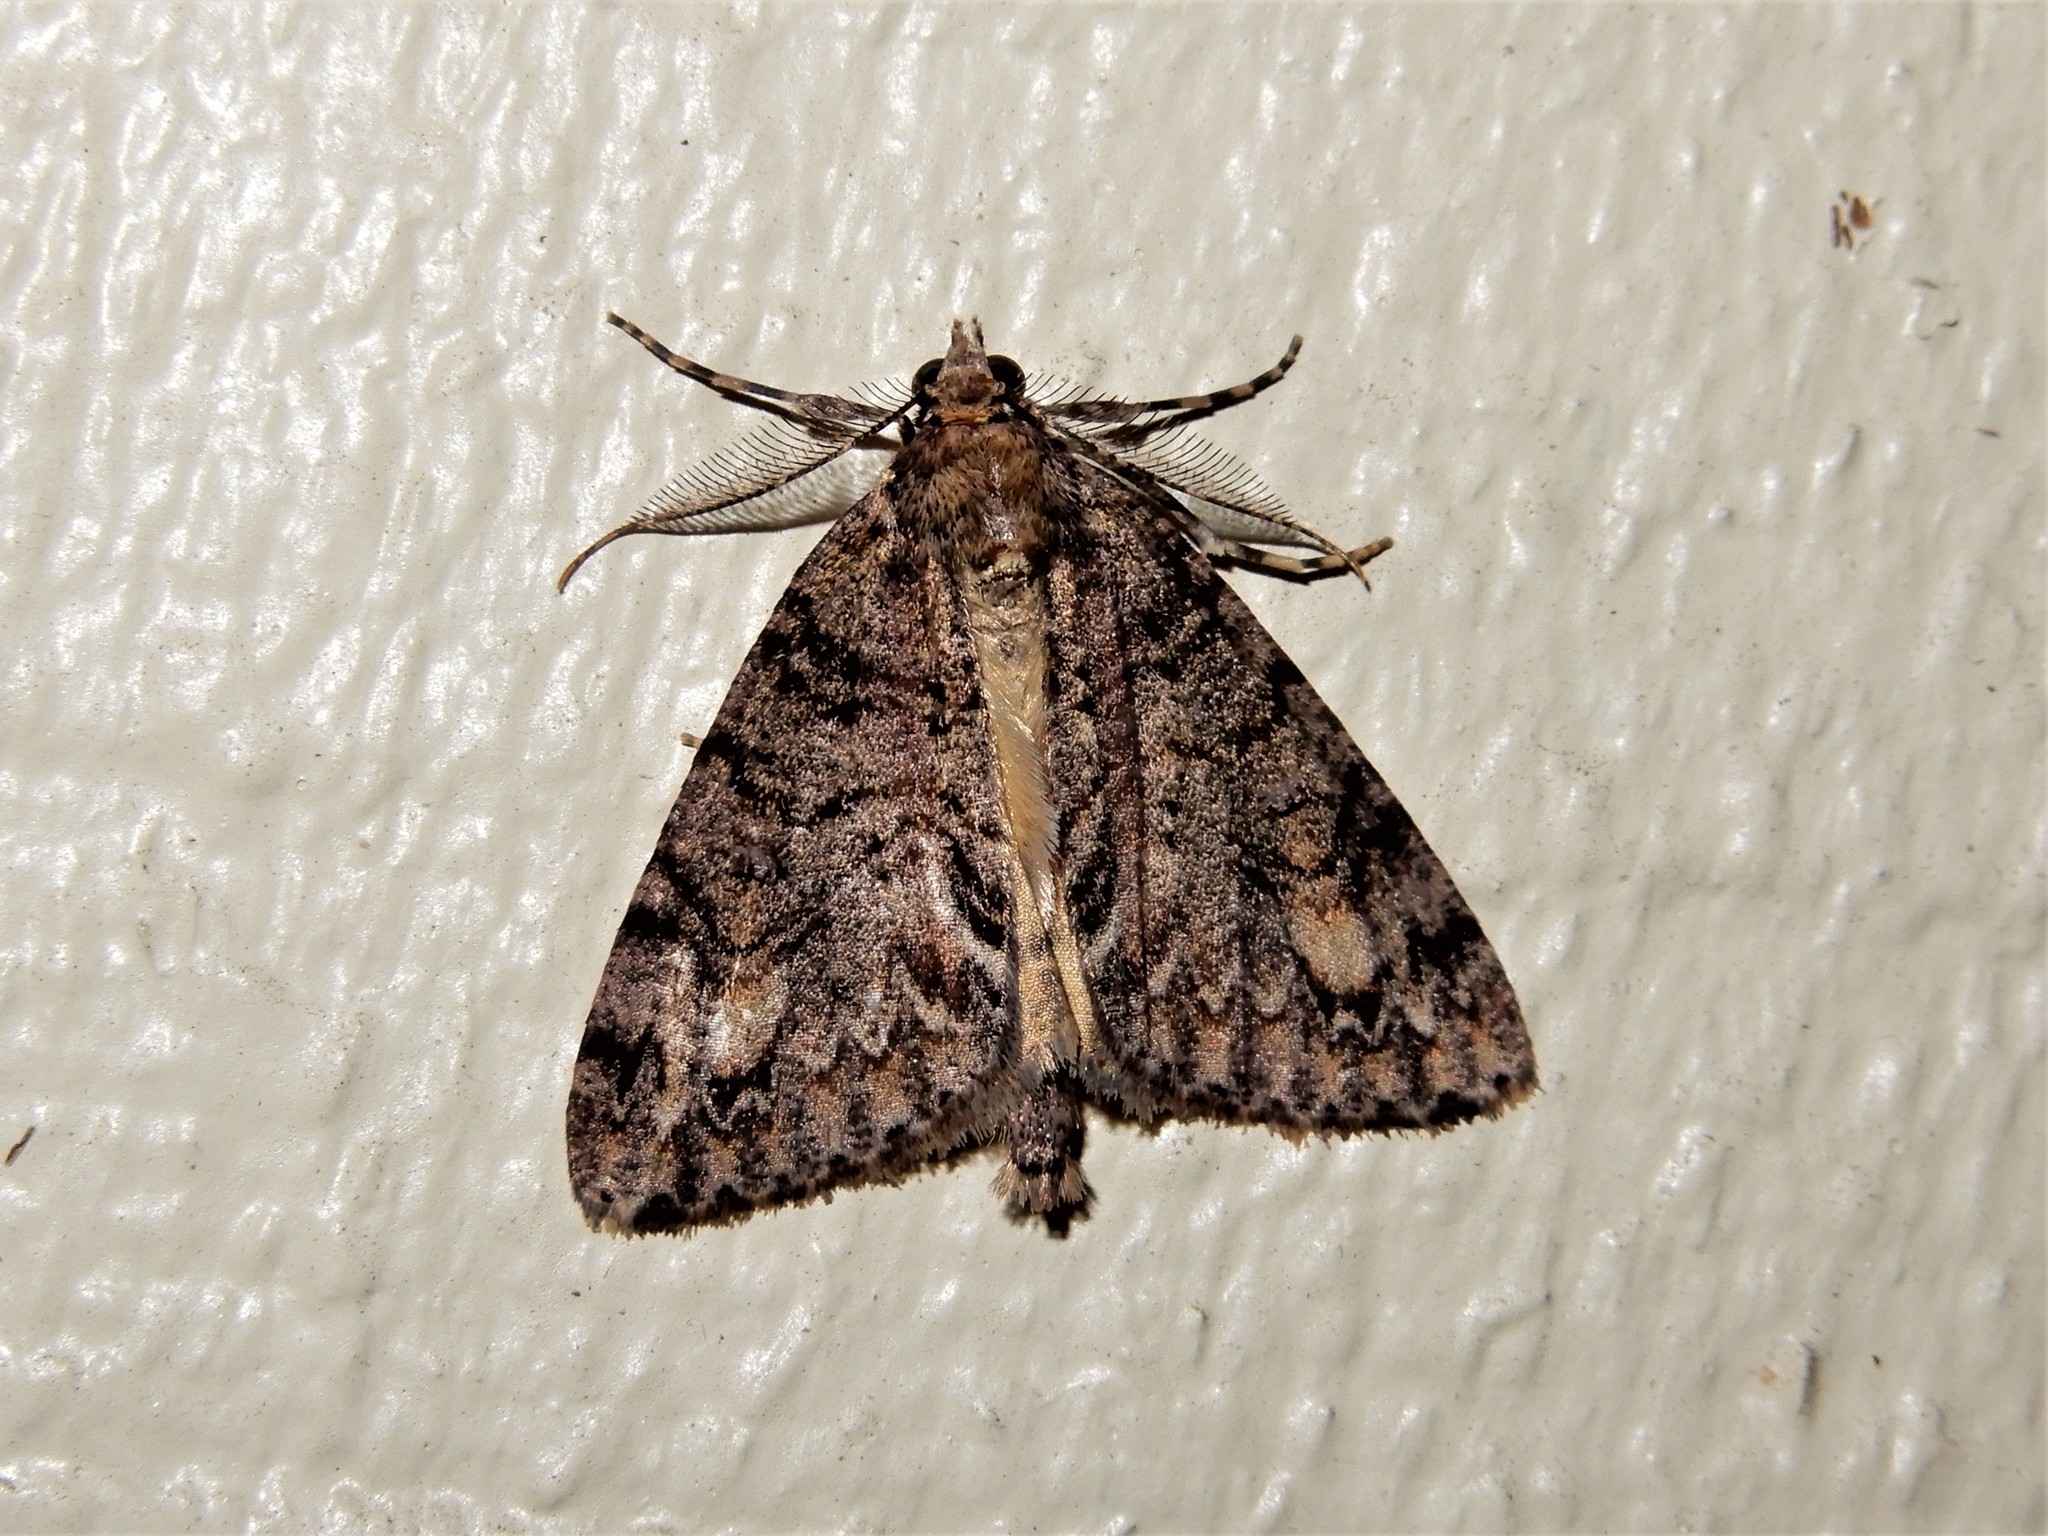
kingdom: Animalia
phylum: Arthropoda
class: Insecta
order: Lepidoptera
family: Geometridae
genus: Pseudocoremia
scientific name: Pseudocoremia suavis
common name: Common forest looper
